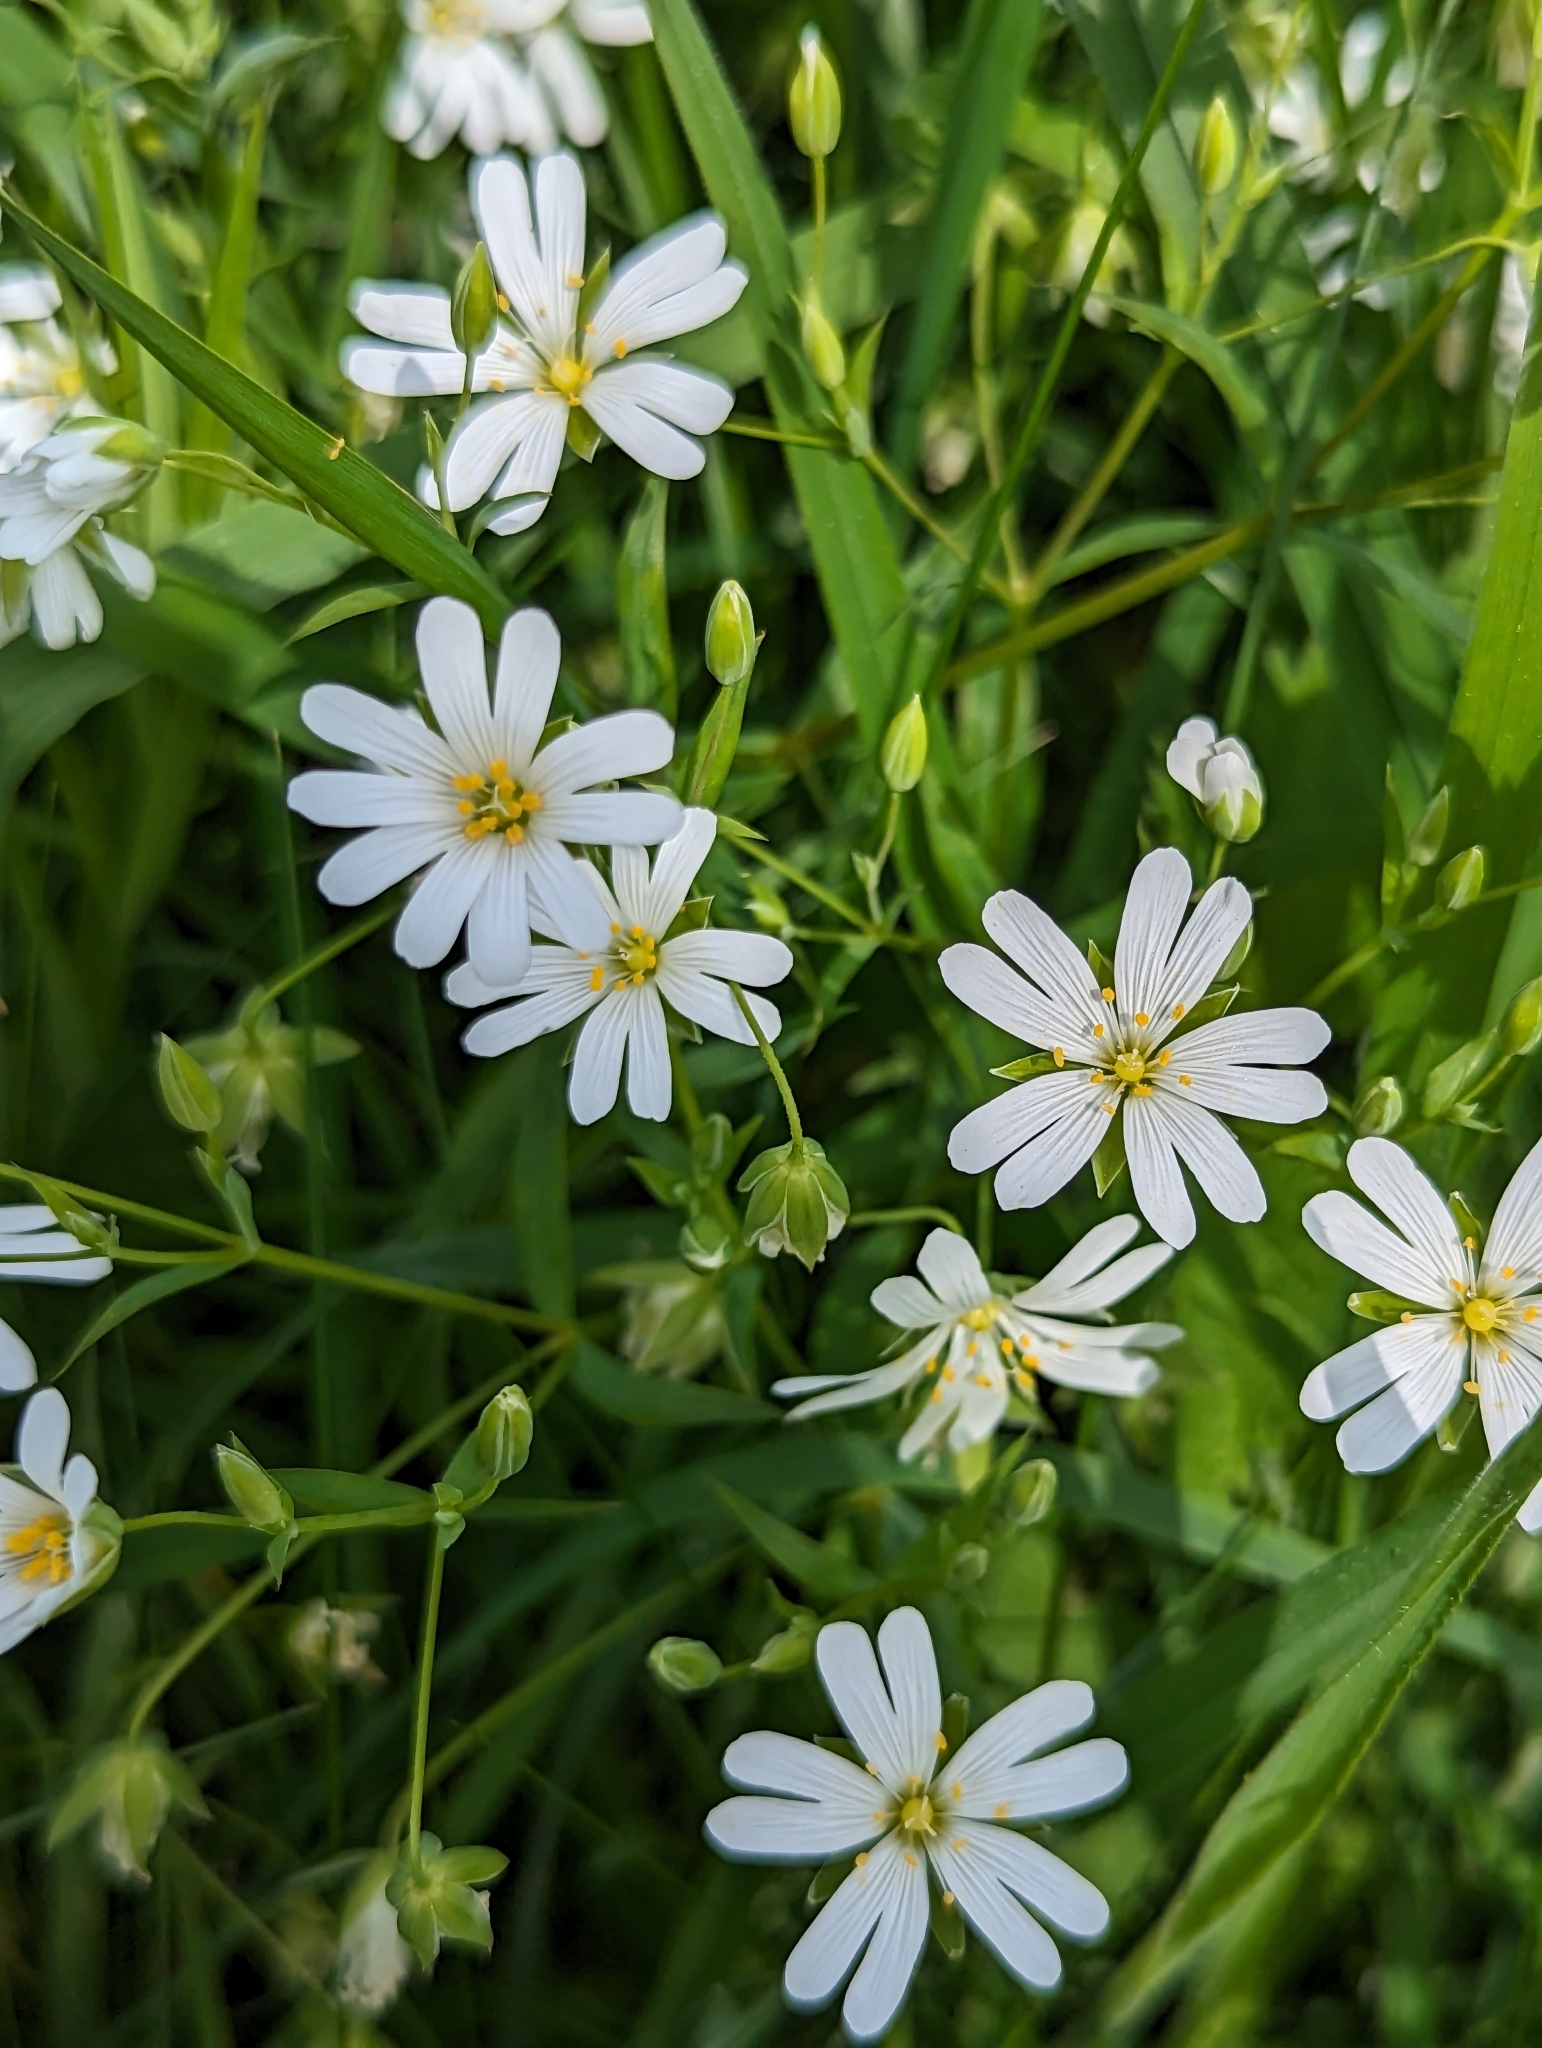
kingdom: Plantae
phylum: Tracheophyta
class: Magnoliopsida
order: Caryophyllales
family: Caryophyllaceae
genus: Rabelera
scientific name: Rabelera holostea
